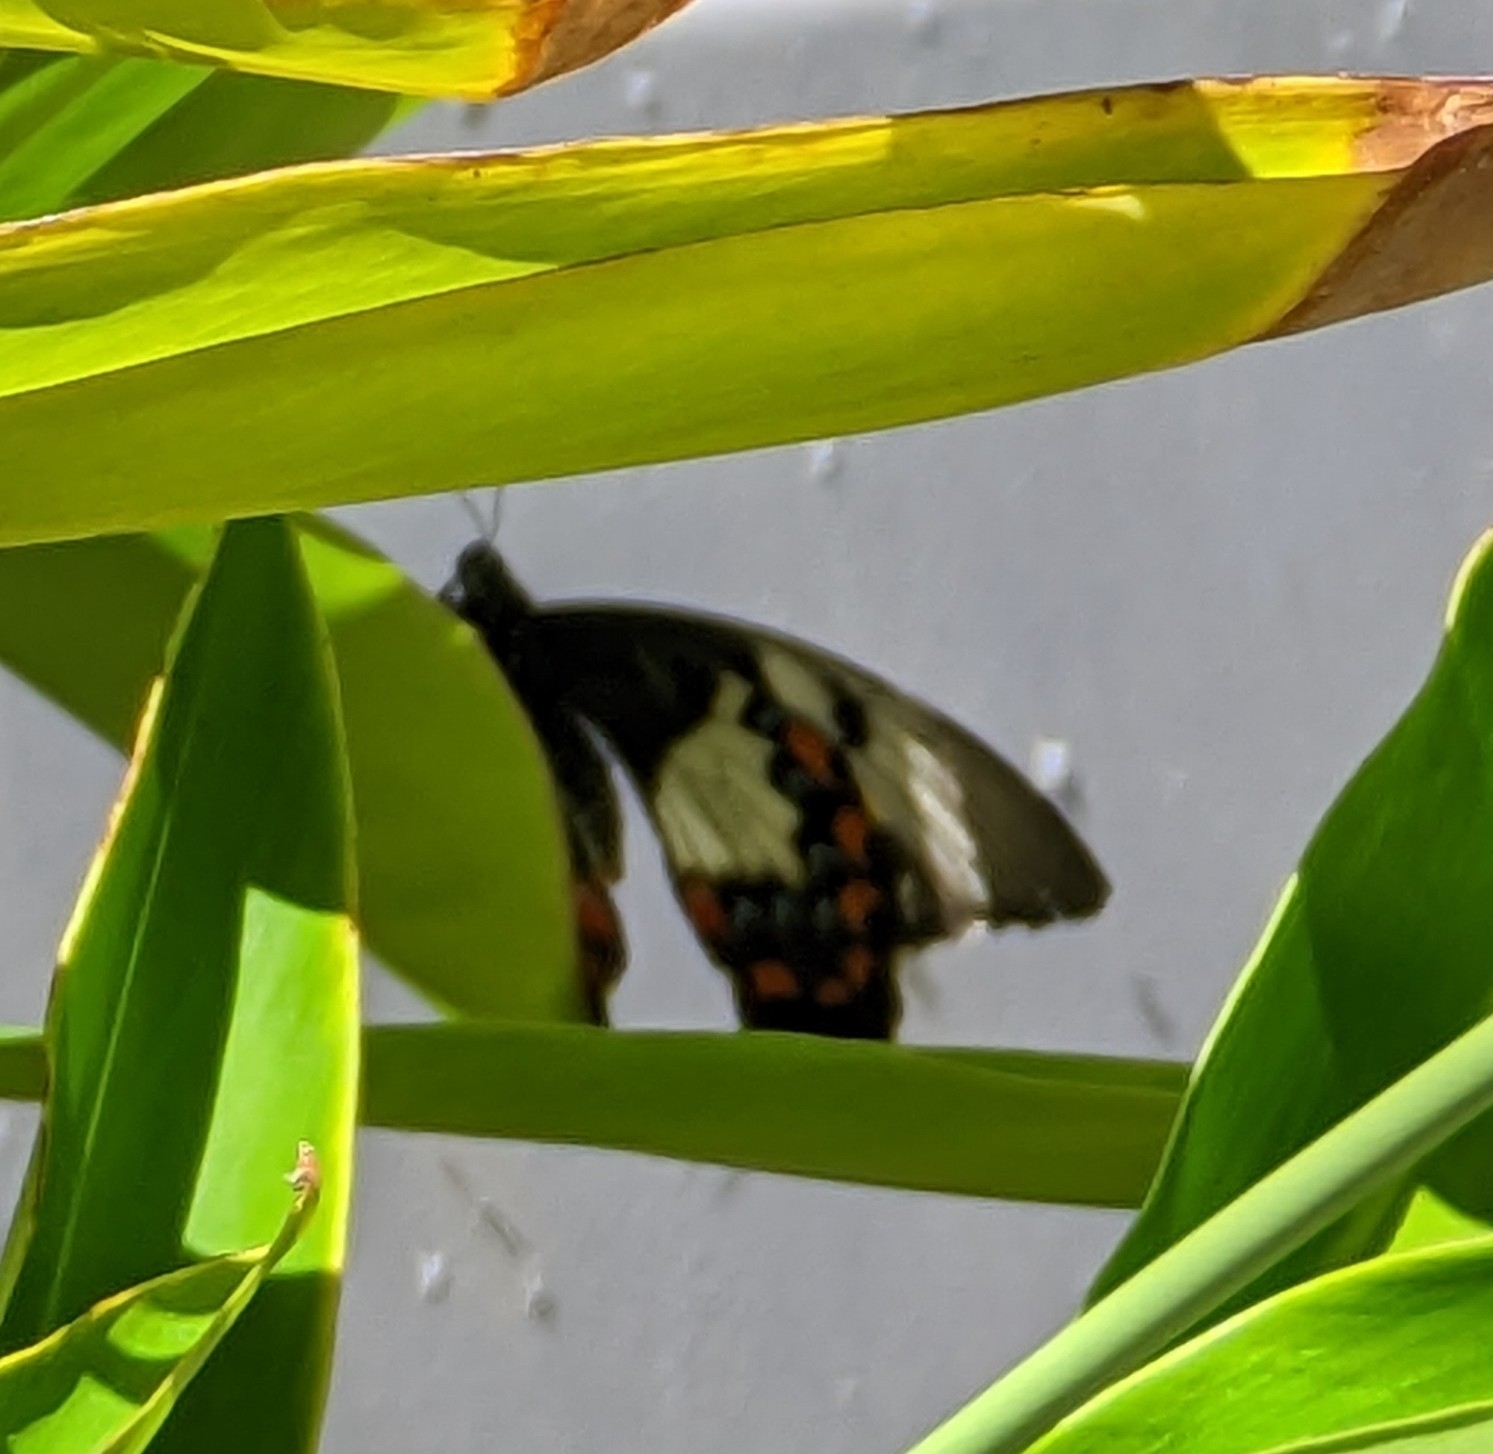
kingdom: Animalia
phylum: Arthropoda
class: Insecta
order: Lepidoptera
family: Papilionidae
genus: Papilio
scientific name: Papilio aegeus
